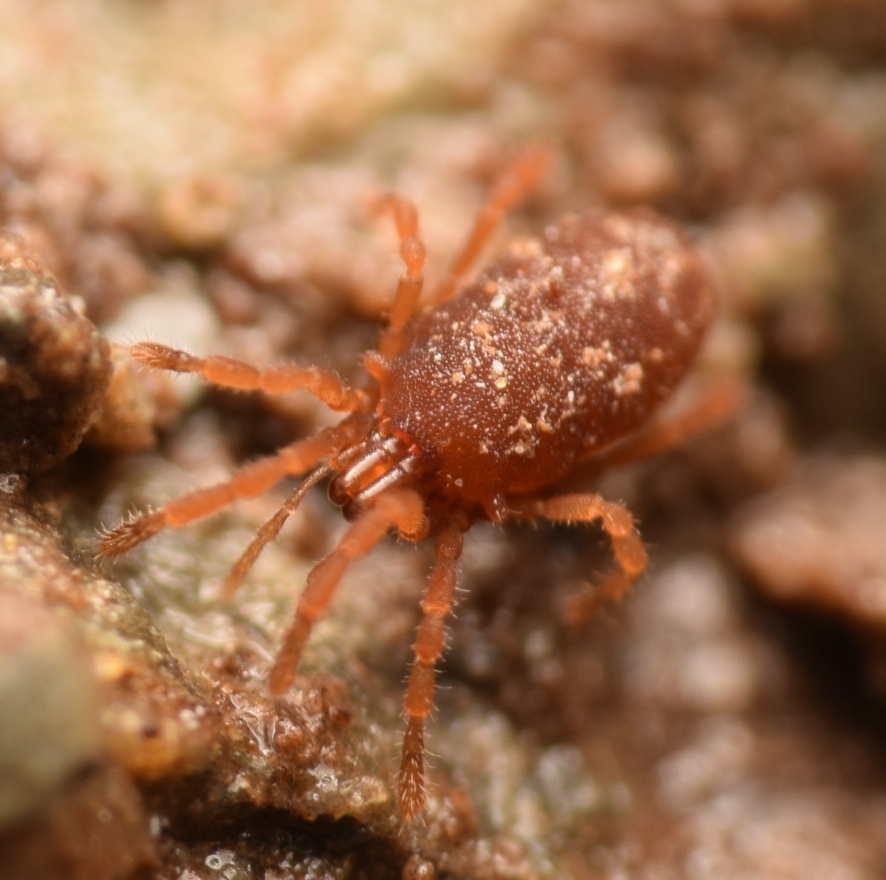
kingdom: Animalia
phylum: Arthropoda
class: Arachnida
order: Opiliones
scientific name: Opiliones
